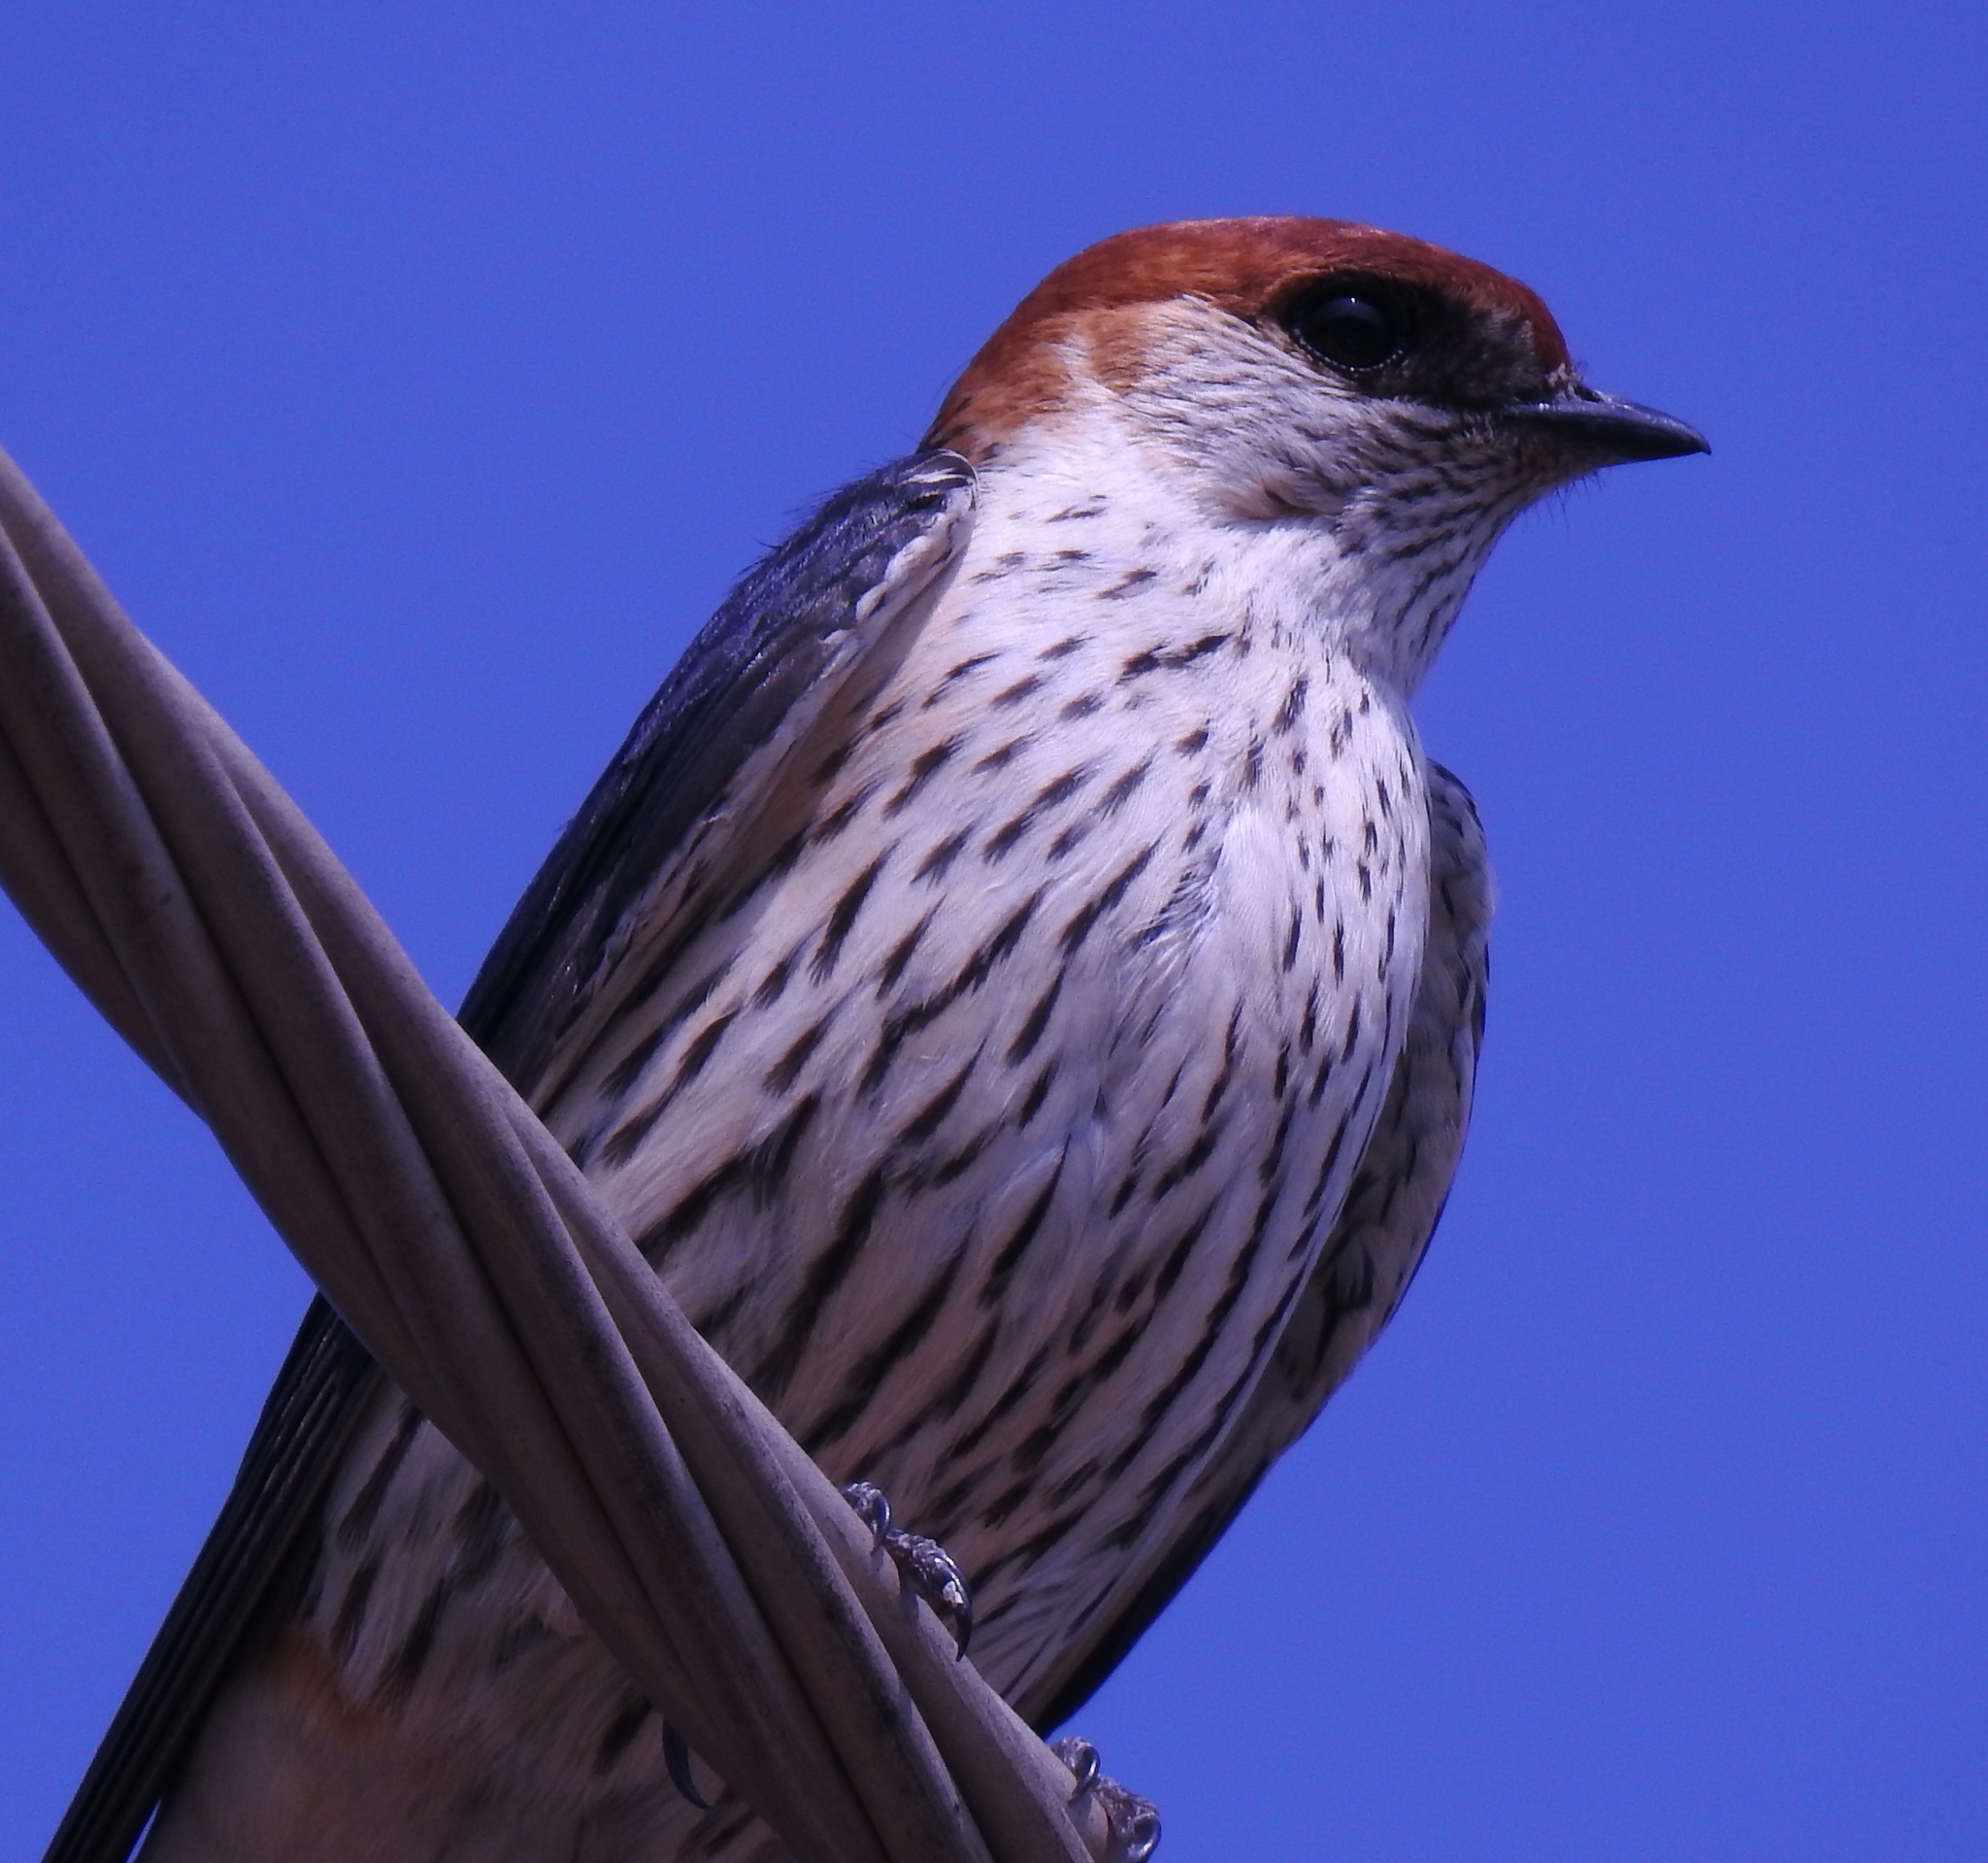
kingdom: Animalia
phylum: Chordata
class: Aves
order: Passeriformes
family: Hirundinidae
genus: Cecropis
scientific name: Cecropis cucullata
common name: Greater striped-swallow
